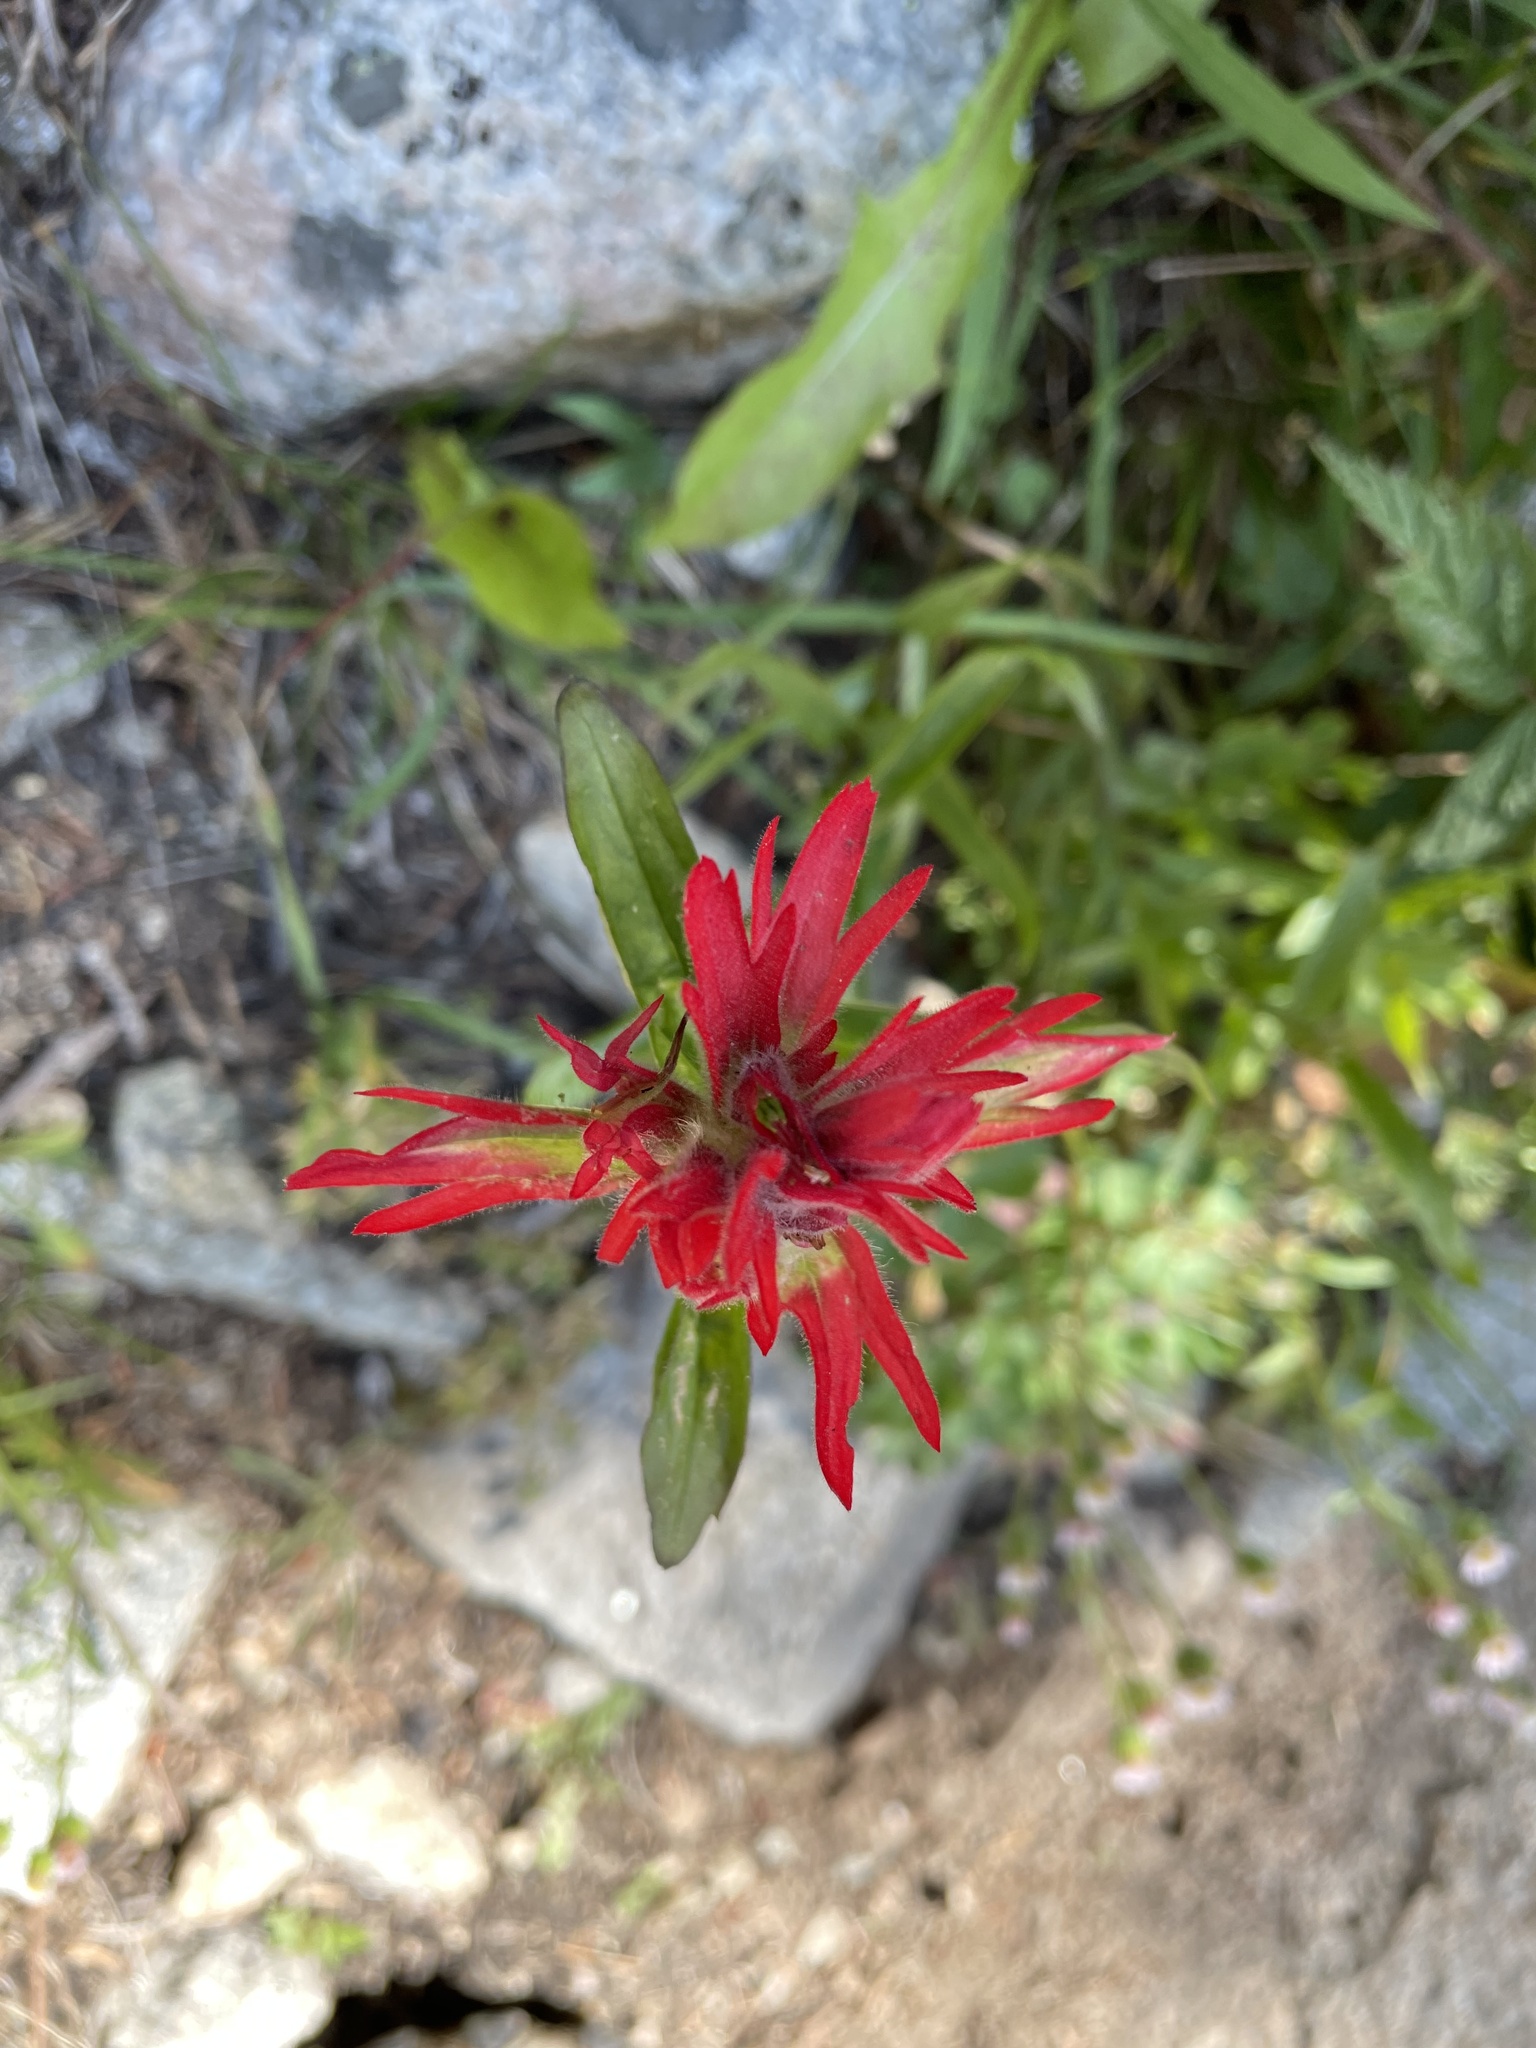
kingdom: Plantae
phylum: Tracheophyta
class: Magnoliopsida
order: Lamiales
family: Orobanchaceae
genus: Castilleja
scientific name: Castilleja miniata
